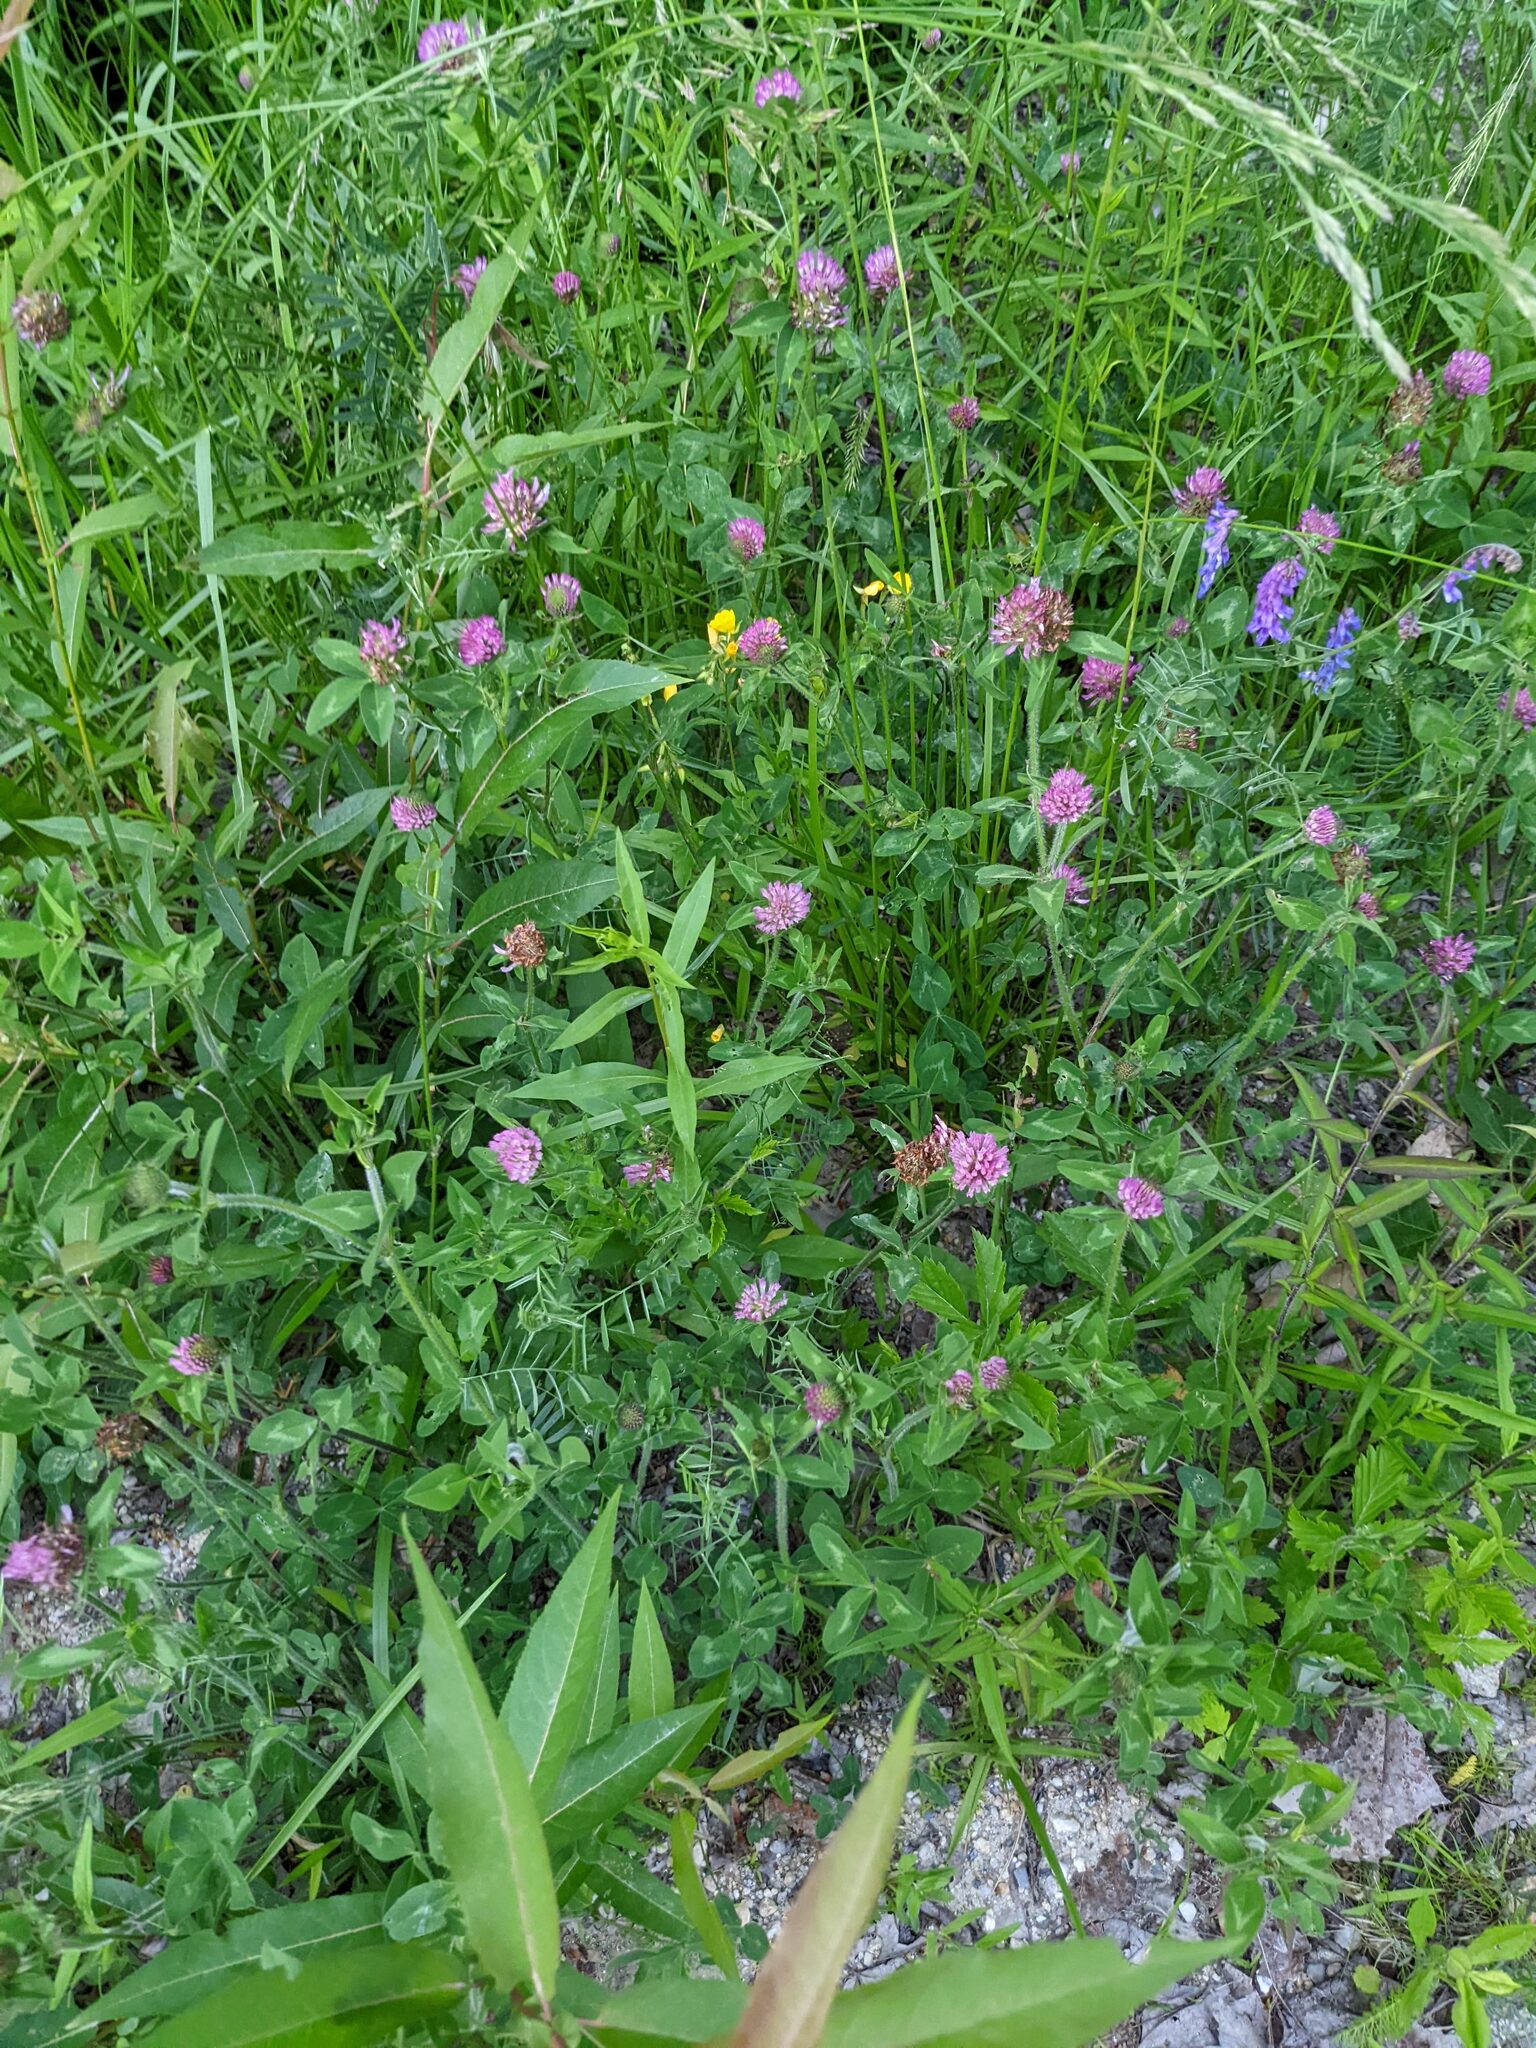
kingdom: Plantae
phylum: Tracheophyta
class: Magnoliopsida
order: Fabales
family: Fabaceae
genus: Trifolium
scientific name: Trifolium pratense
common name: Red clover
